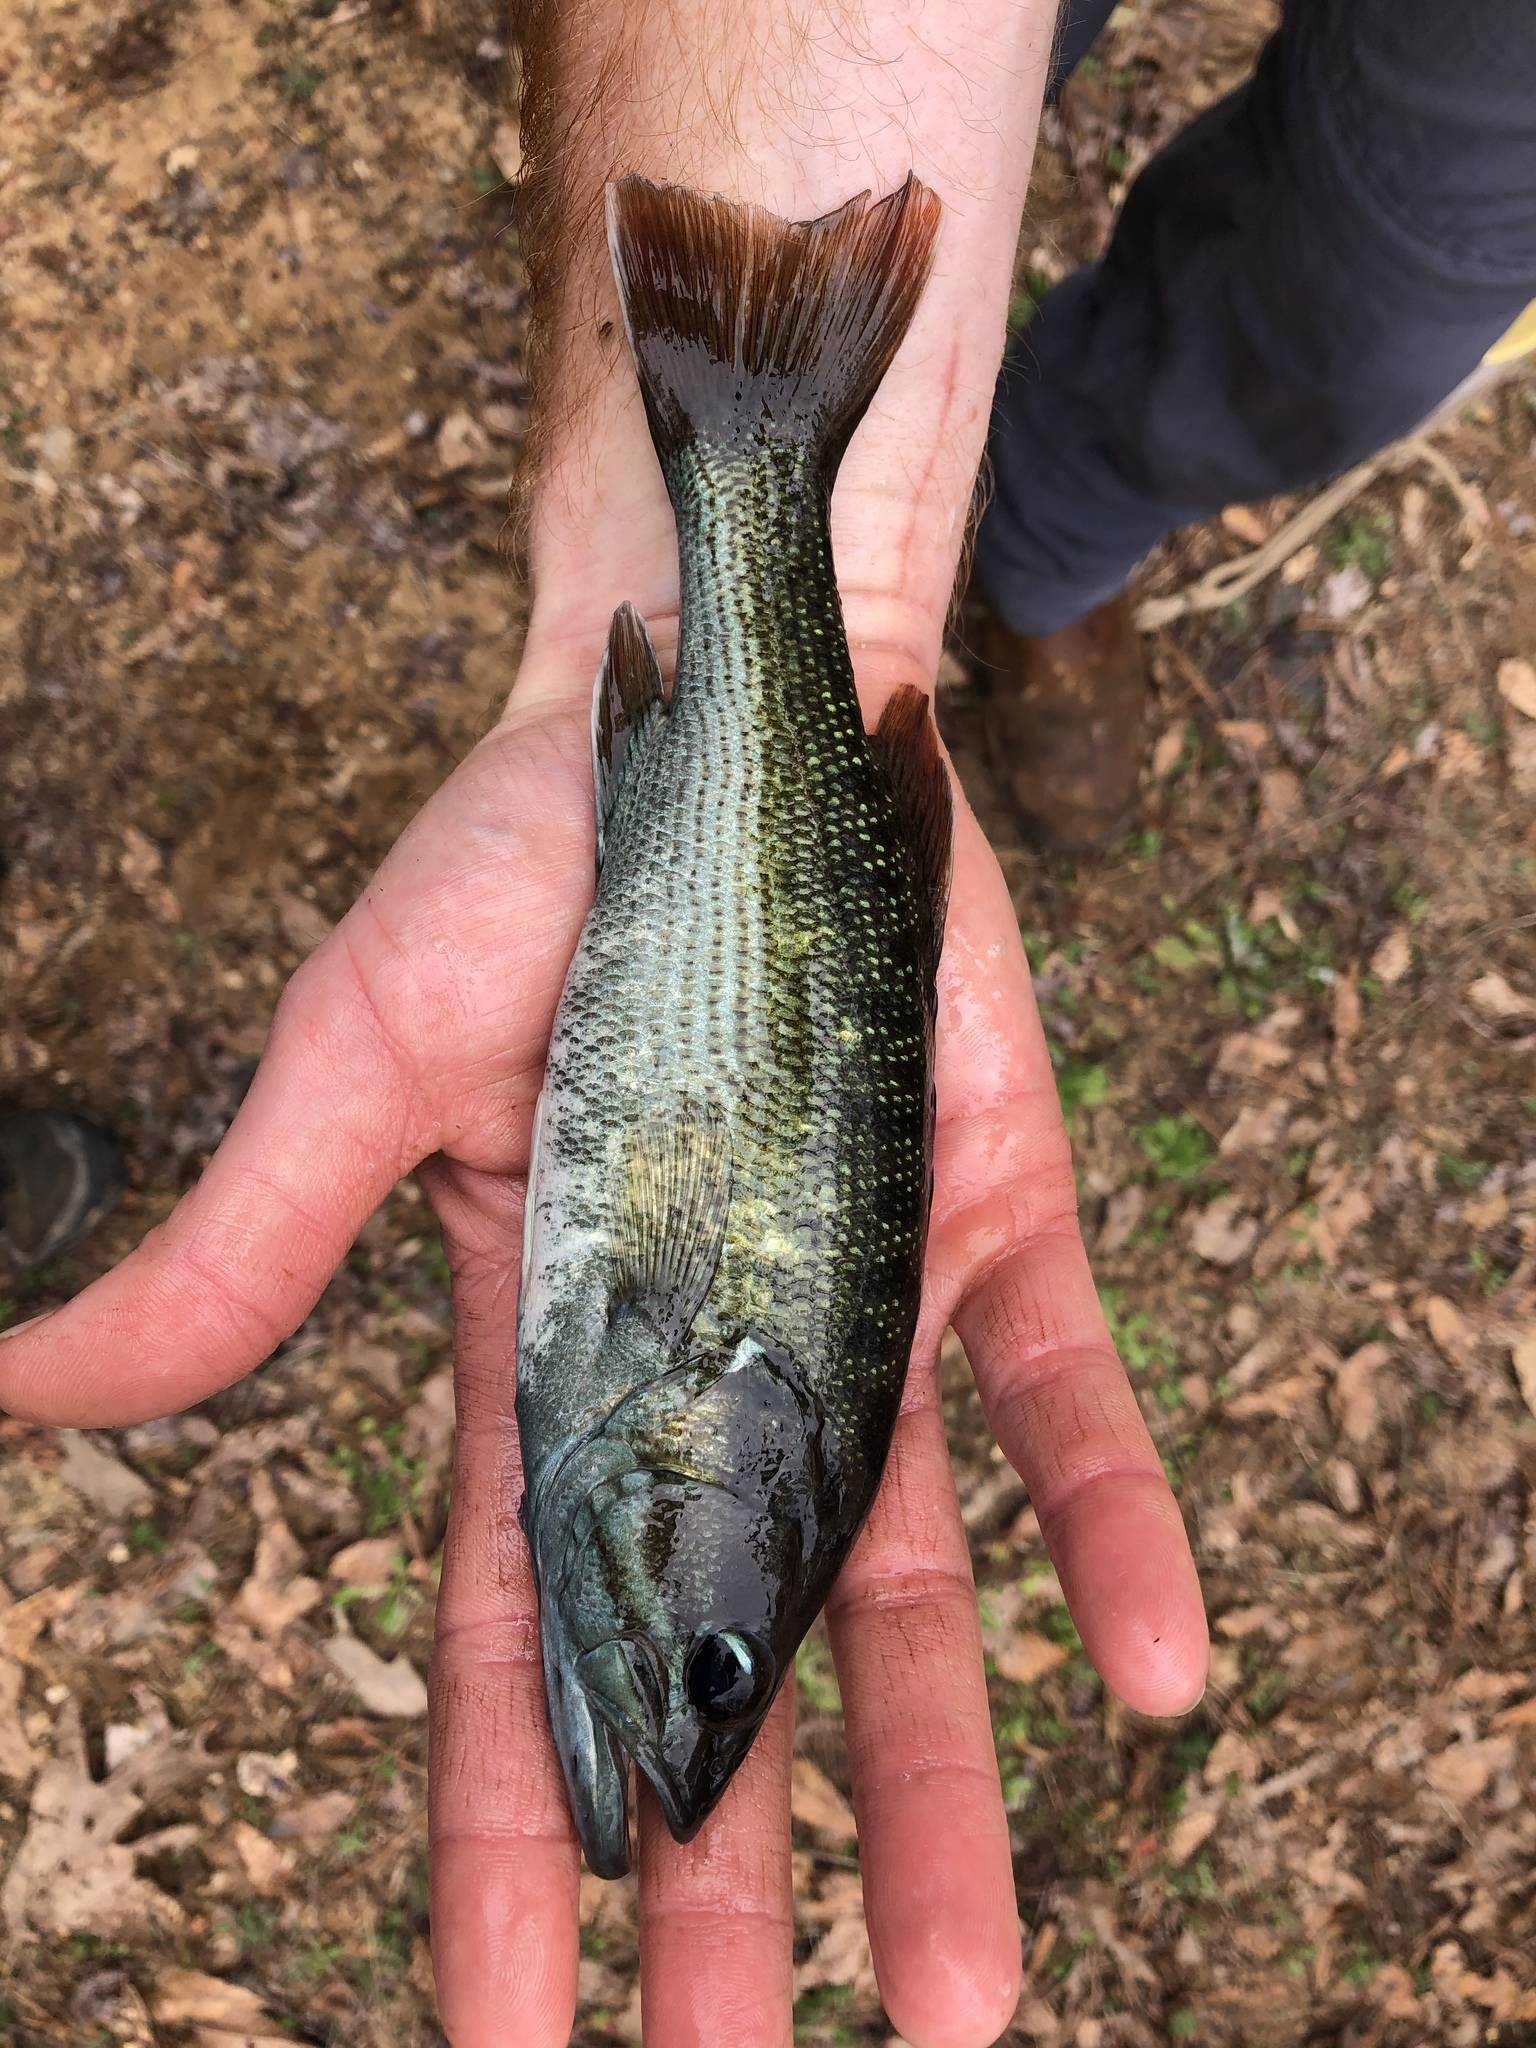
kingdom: Animalia
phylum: Chordata
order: Perciformes
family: Centrarchidae
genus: Micropterus
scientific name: Micropterus coosae
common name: Redeye bass
